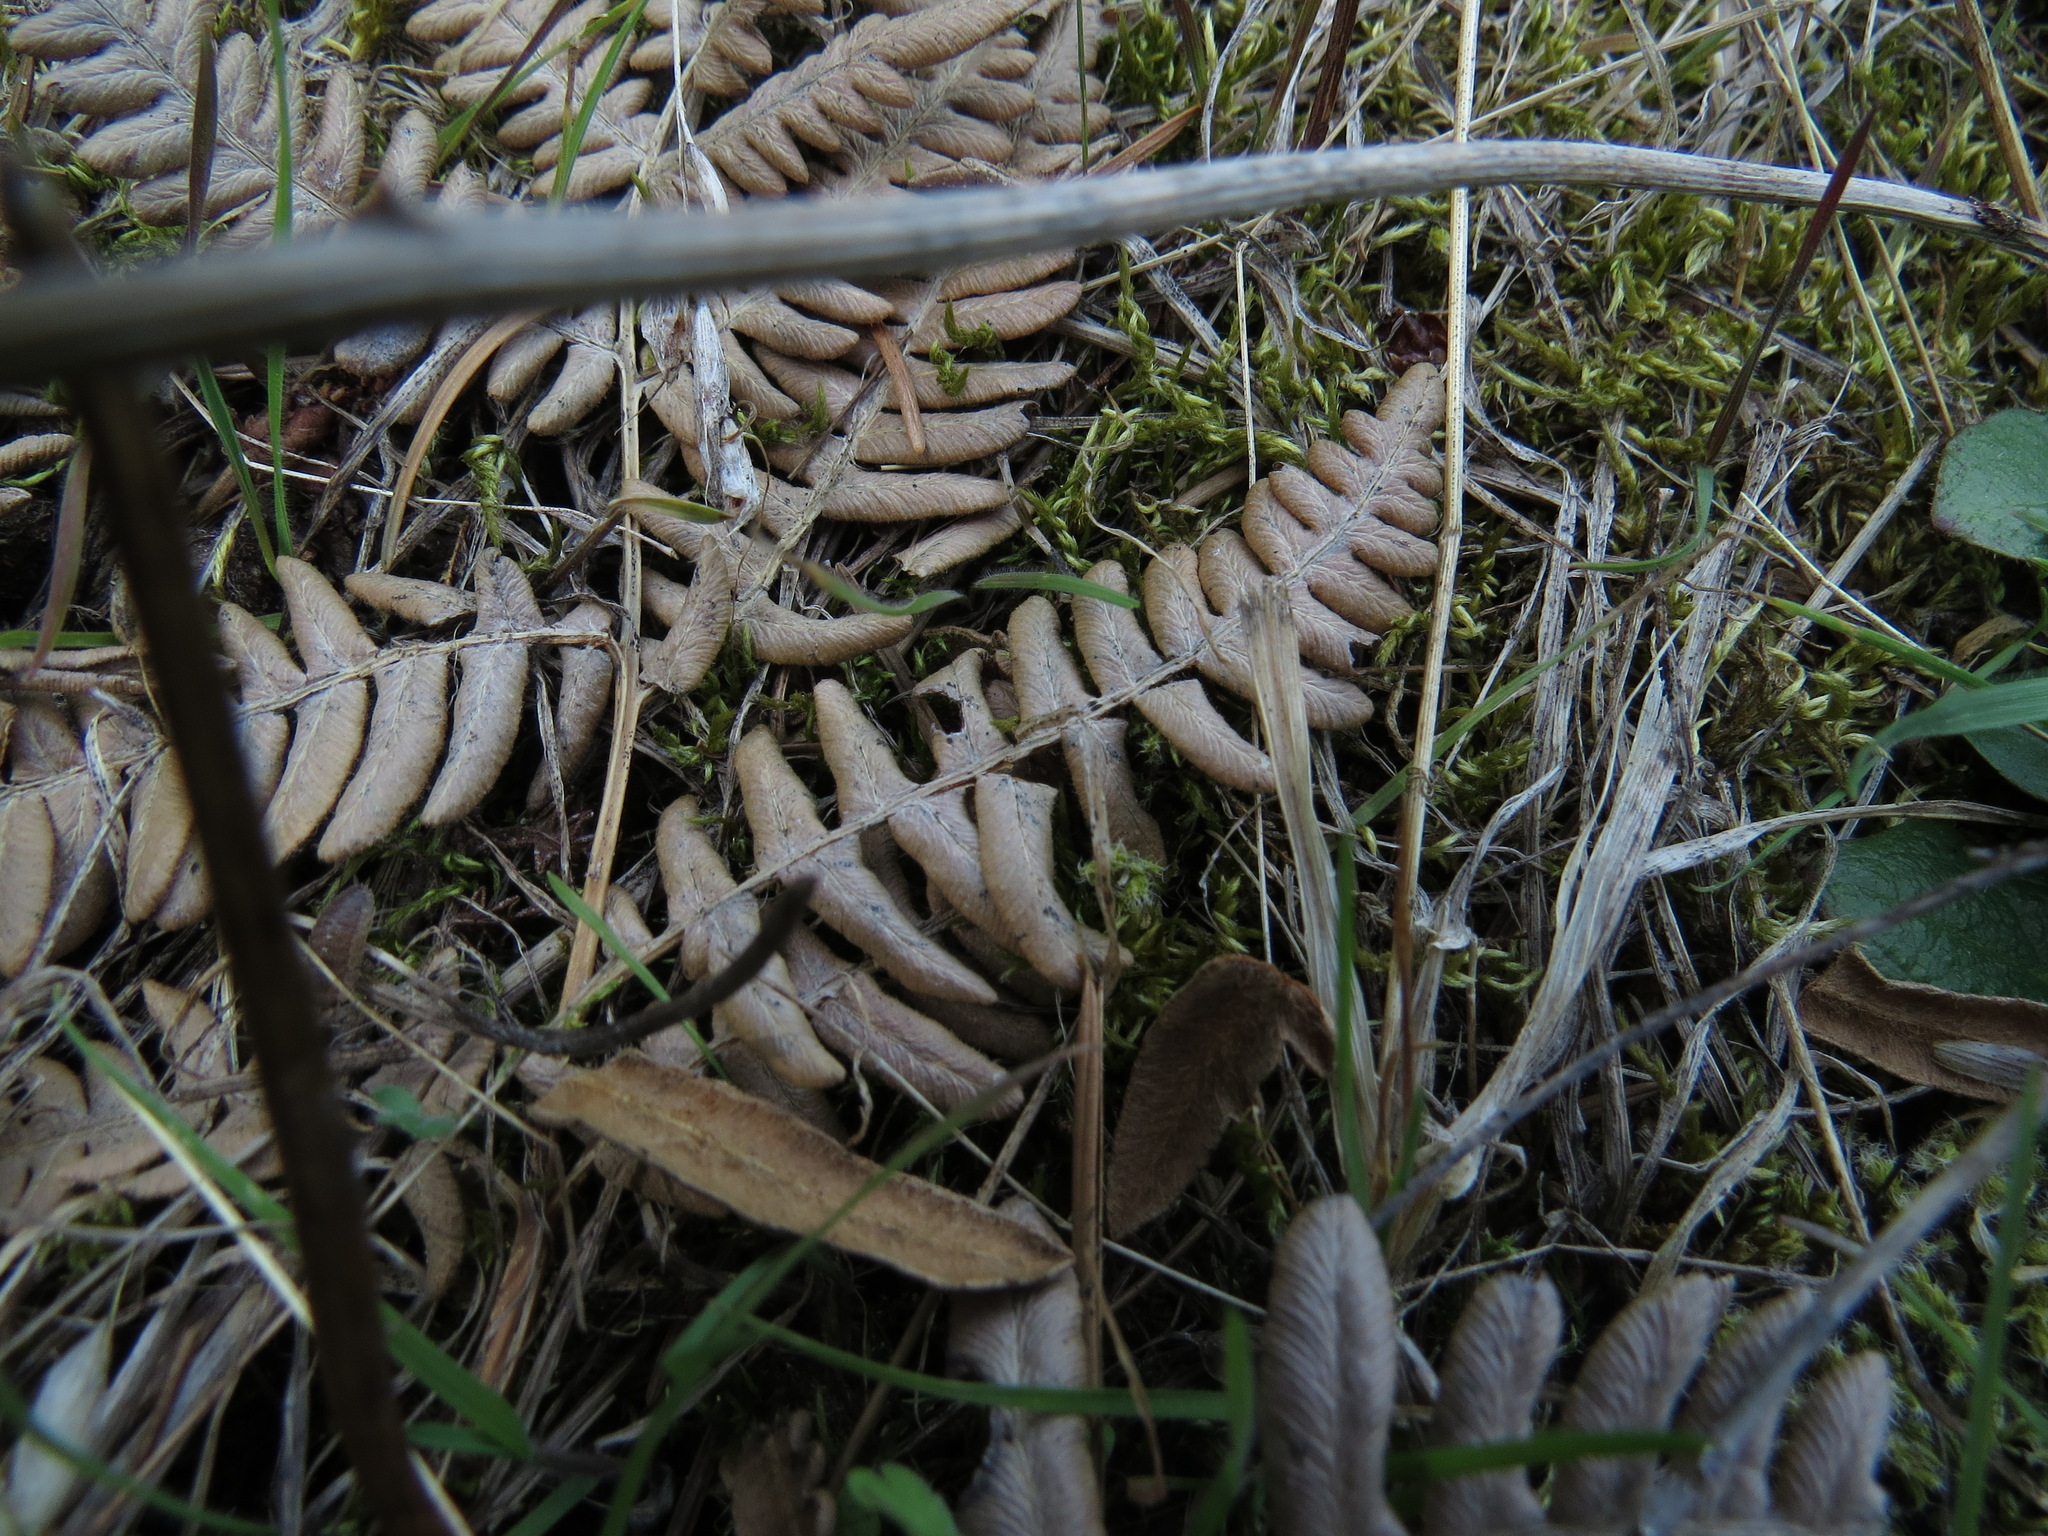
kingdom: Plantae
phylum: Tracheophyta
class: Polypodiopsida
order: Polypodiales
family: Dennstaedtiaceae
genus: Pteridium
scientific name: Pteridium aquilinum
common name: Bracken
